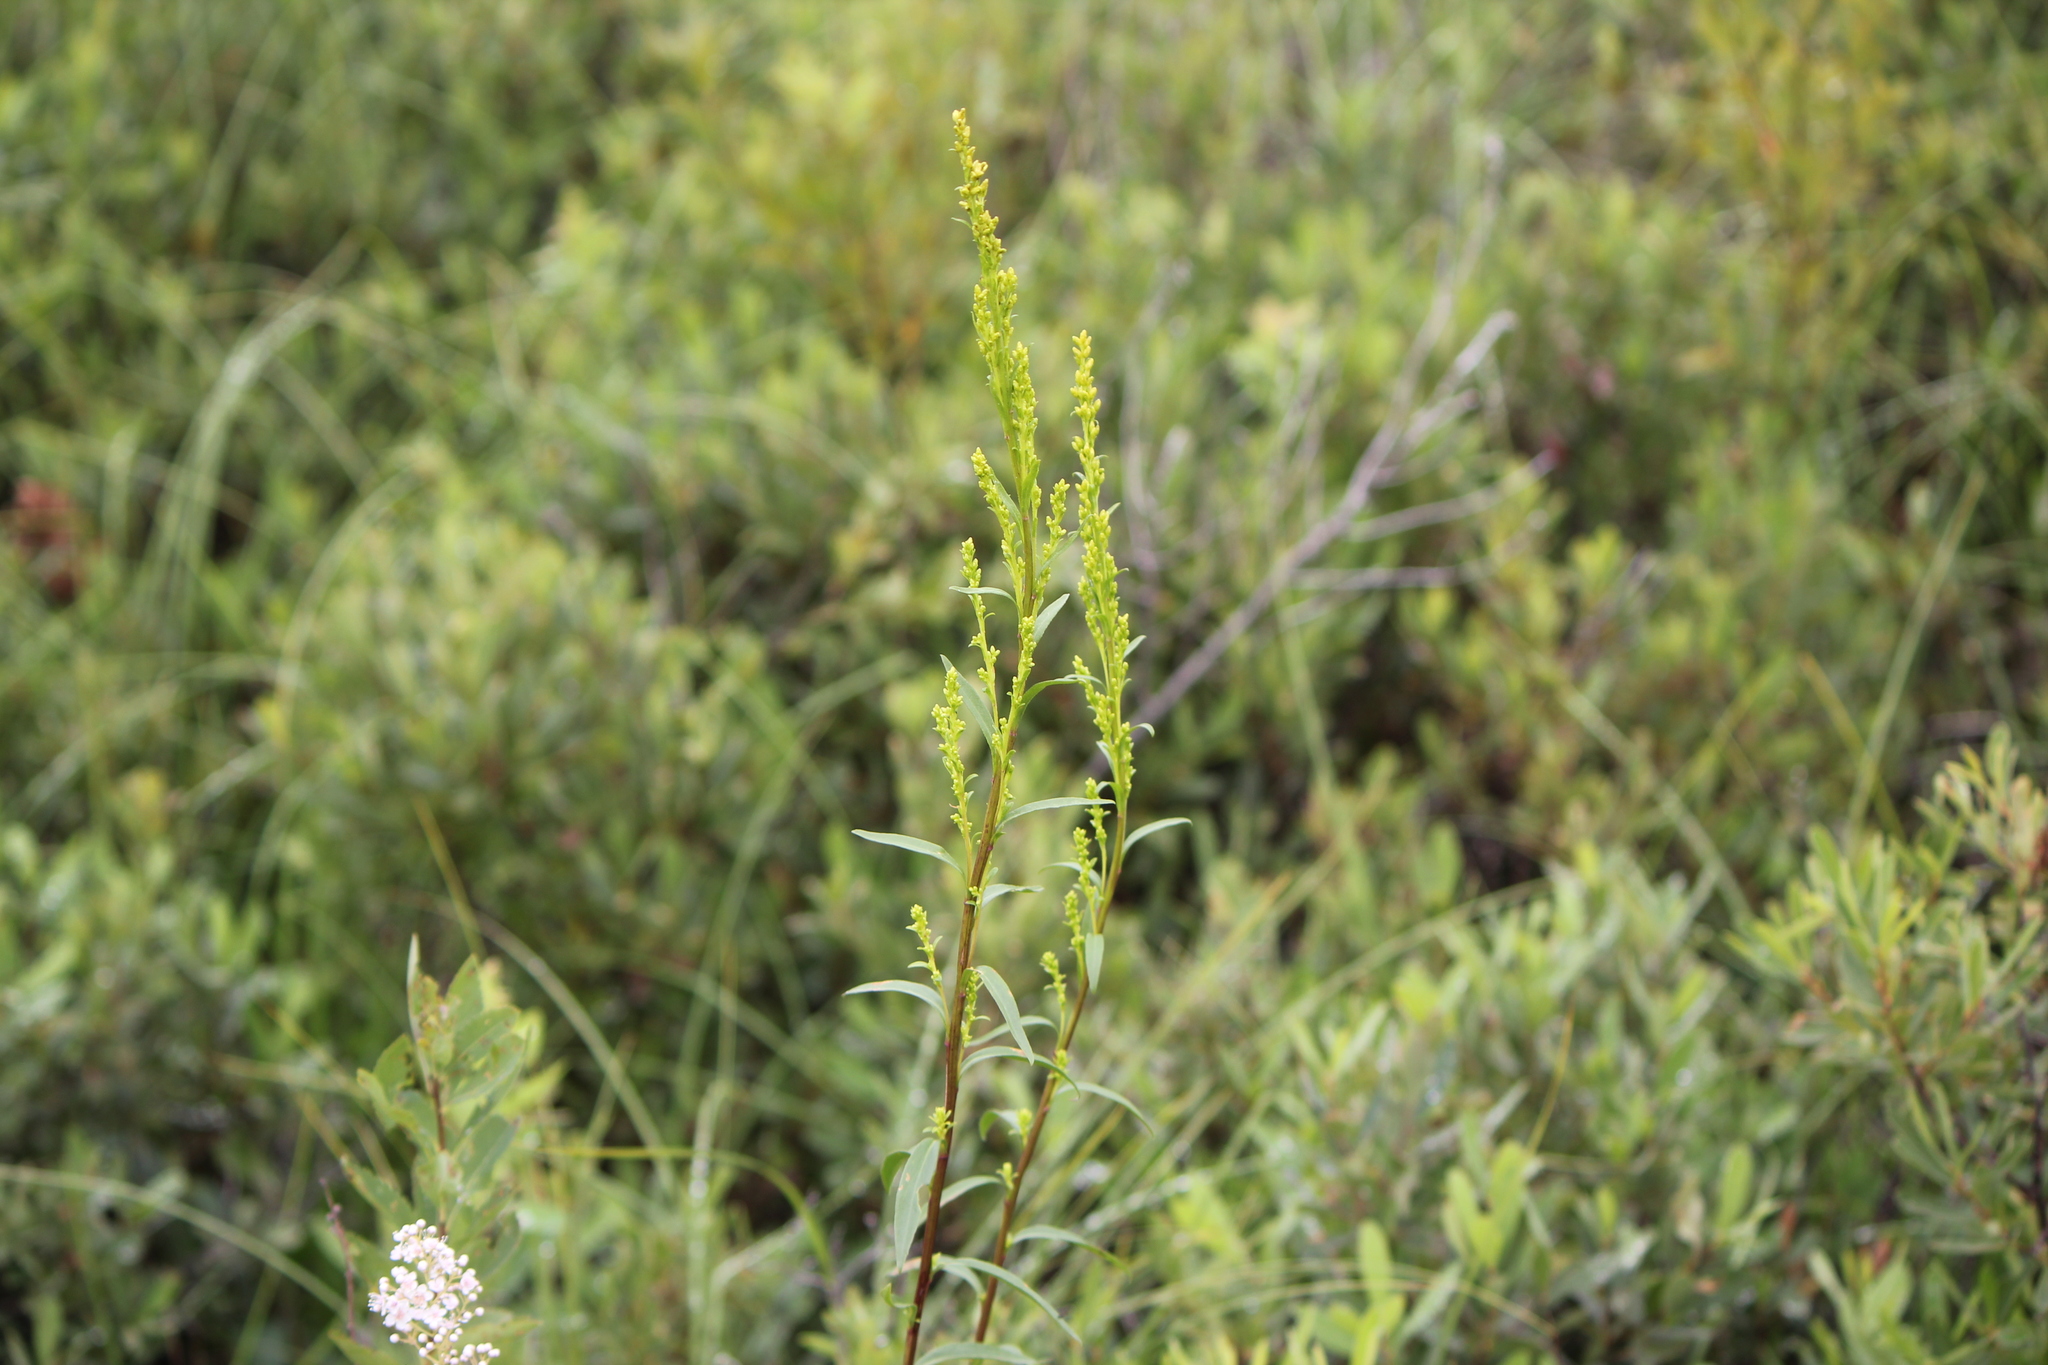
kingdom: Plantae
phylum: Tracheophyta
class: Magnoliopsida
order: Asterales
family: Asteraceae
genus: Solidago
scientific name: Solidago uliginosa
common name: Bog goldenrod
